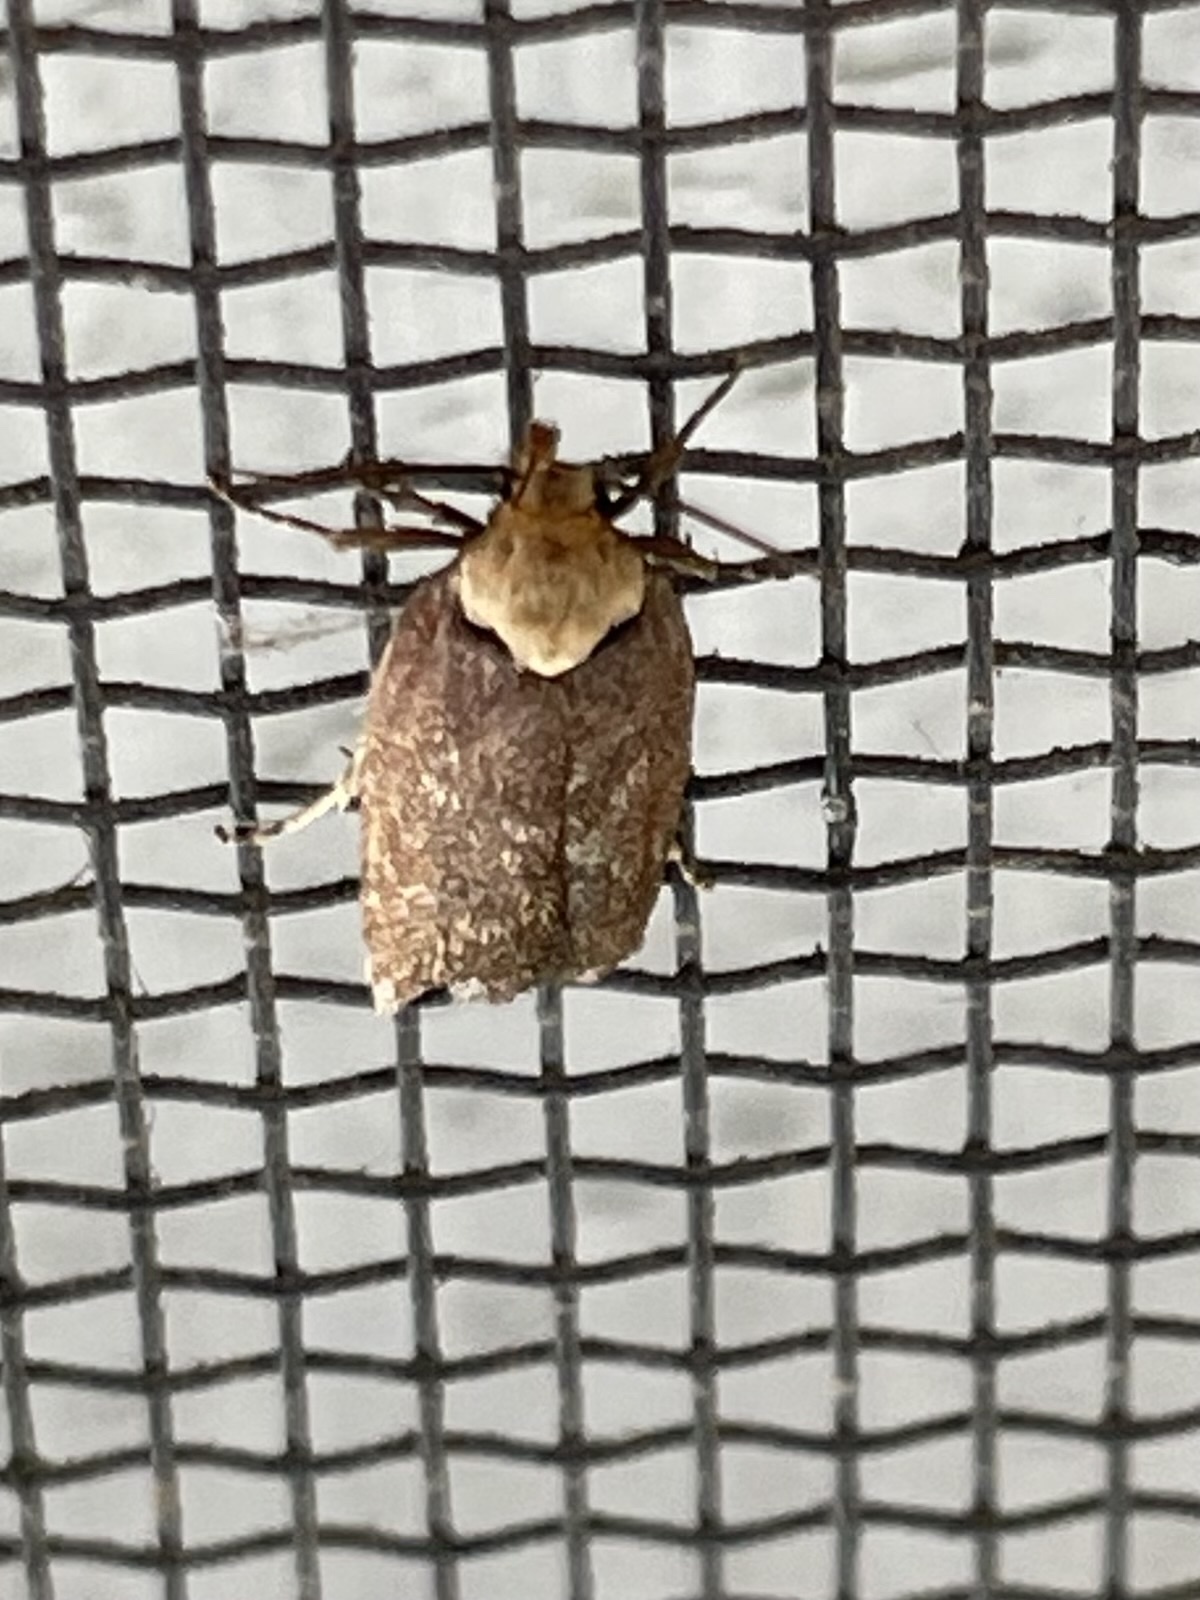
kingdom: Animalia
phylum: Arthropoda
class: Insecta
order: Lepidoptera
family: Depressariidae
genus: Depressaria
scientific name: Depressaria depressana
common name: Lost flat-body
